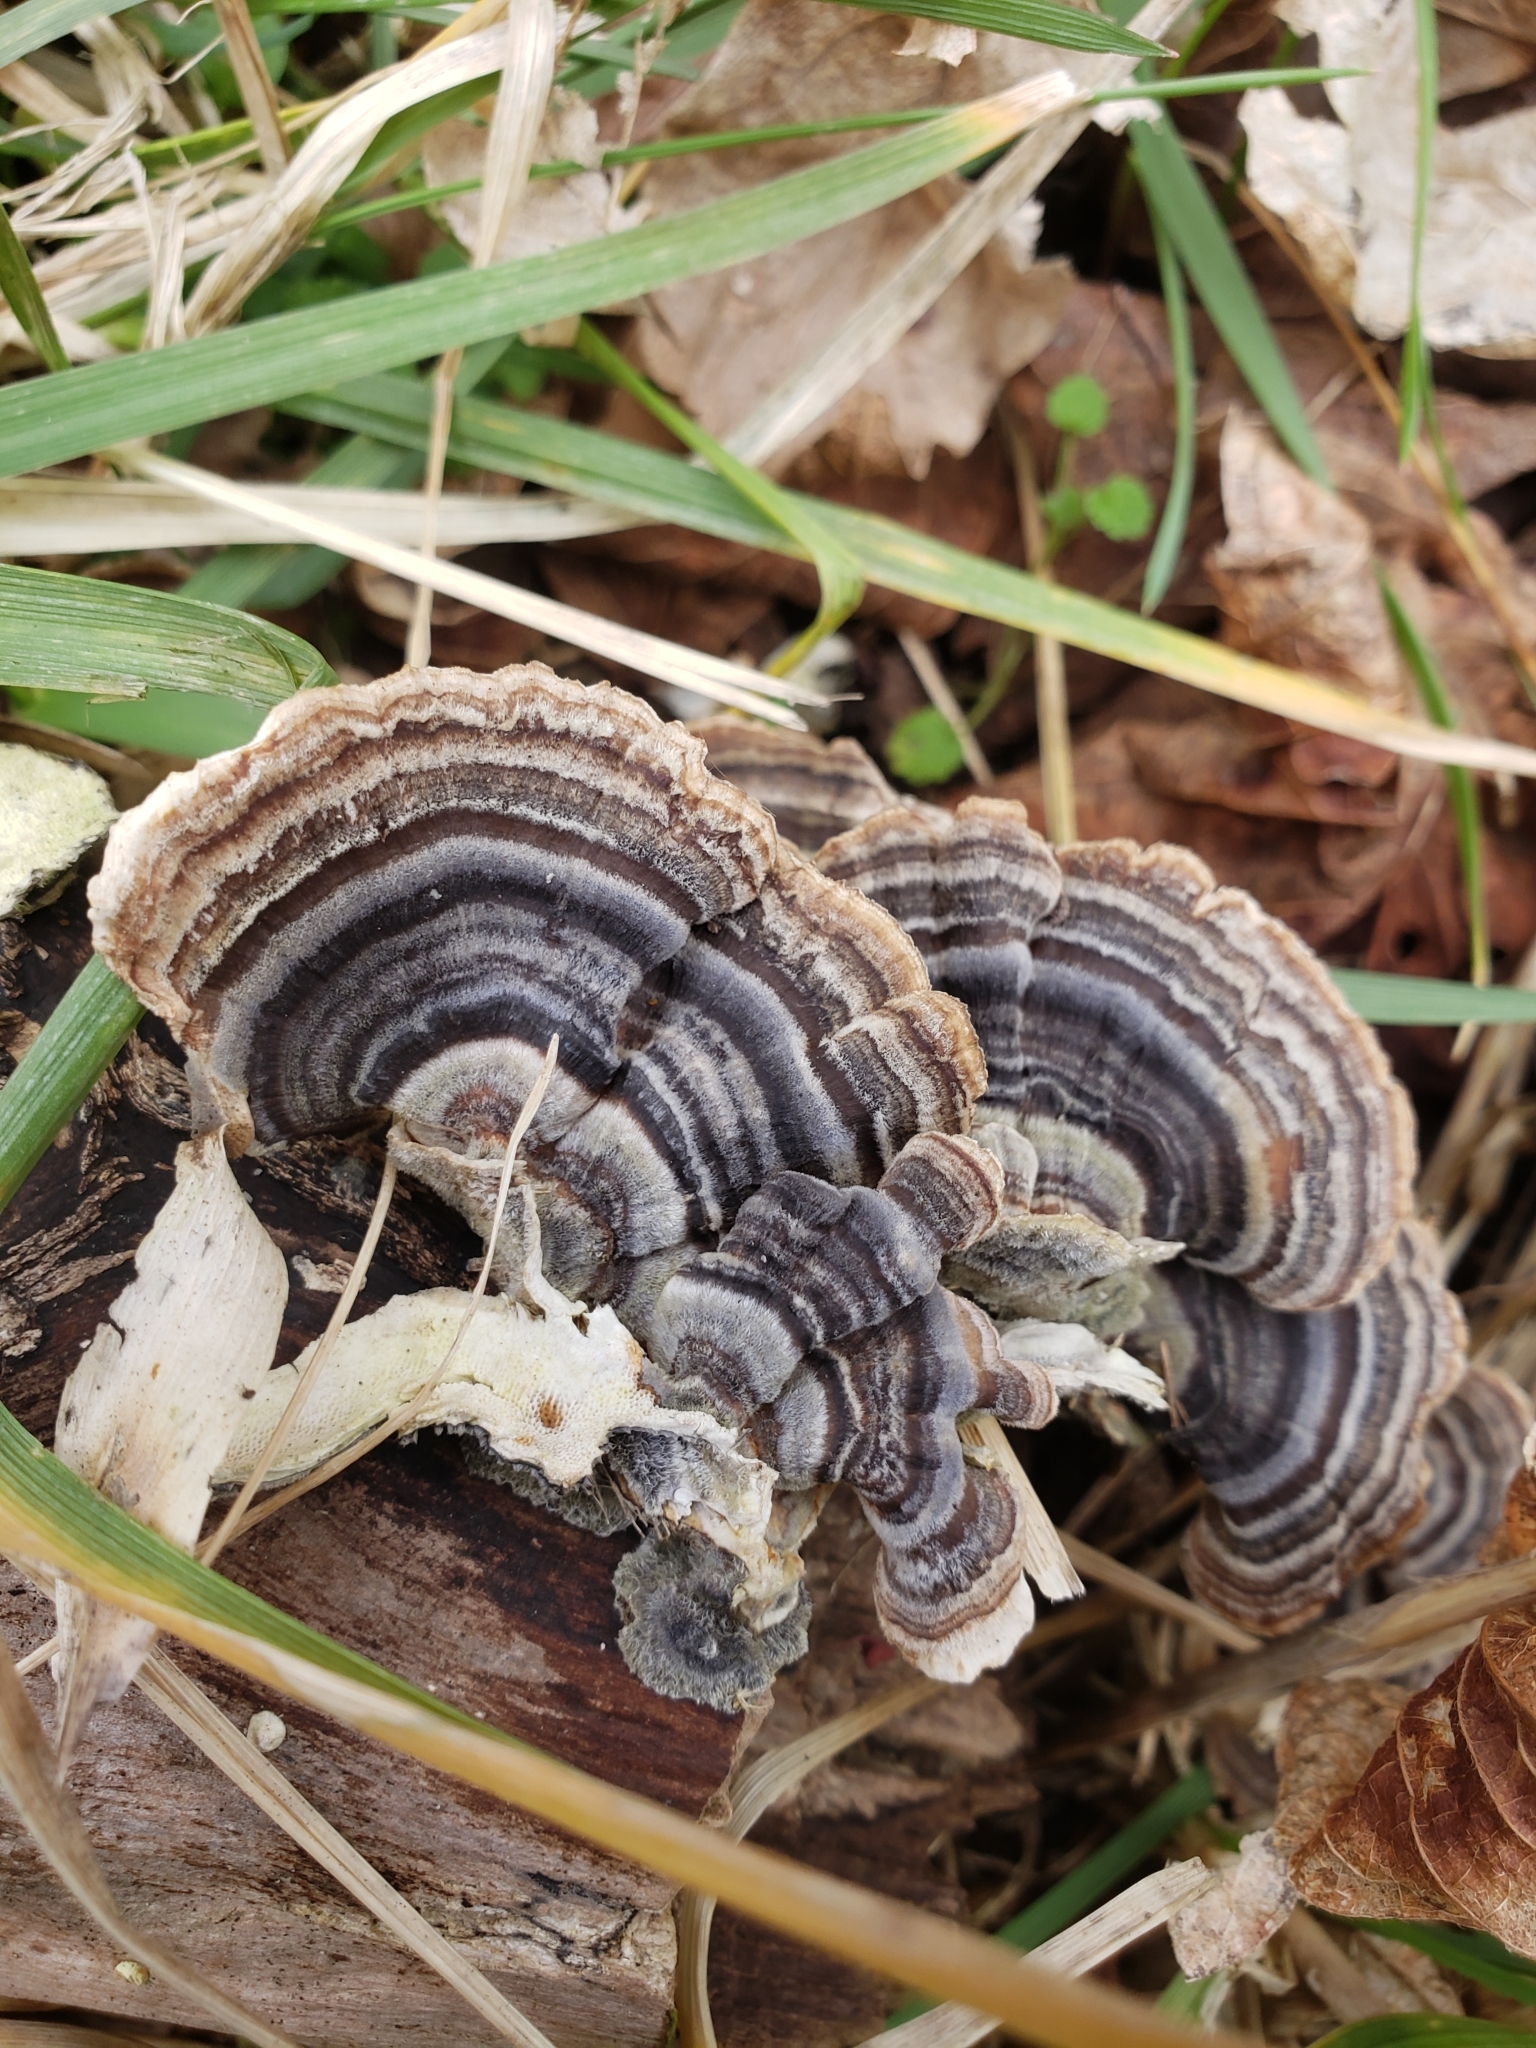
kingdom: Fungi
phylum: Basidiomycota
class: Agaricomycetes
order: Polyporales
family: Polyporaceae
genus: Trametes
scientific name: Trametes versicolor
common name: Turkeytail
